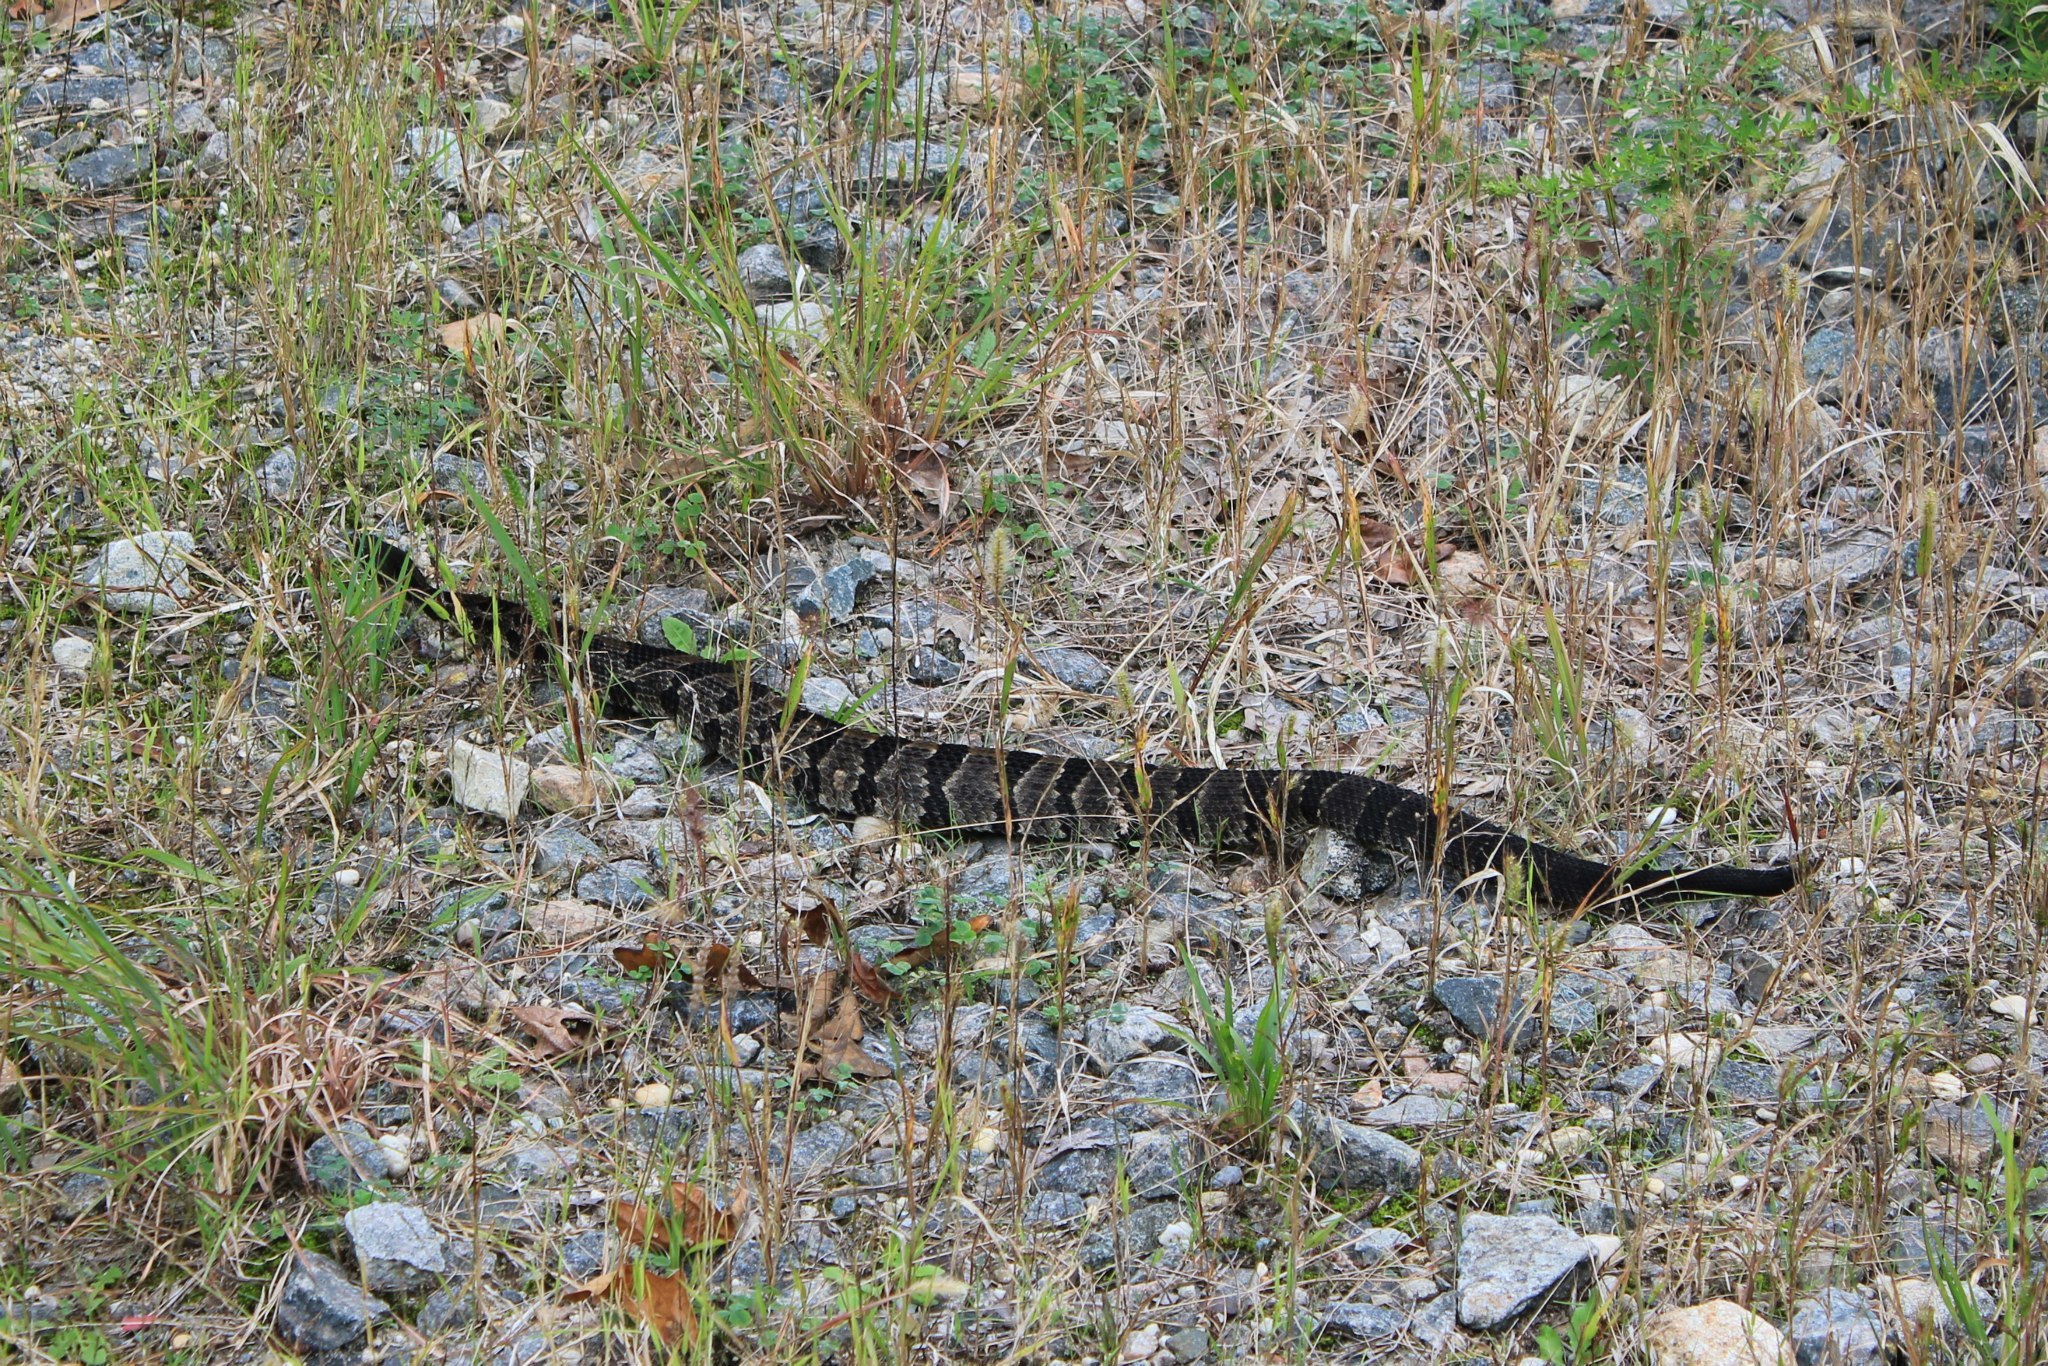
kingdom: Animalia
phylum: Chordata
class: Squamata
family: Viperidae
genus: Crotalus
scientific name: Crotalus horridus
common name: Timber rattlesnake
